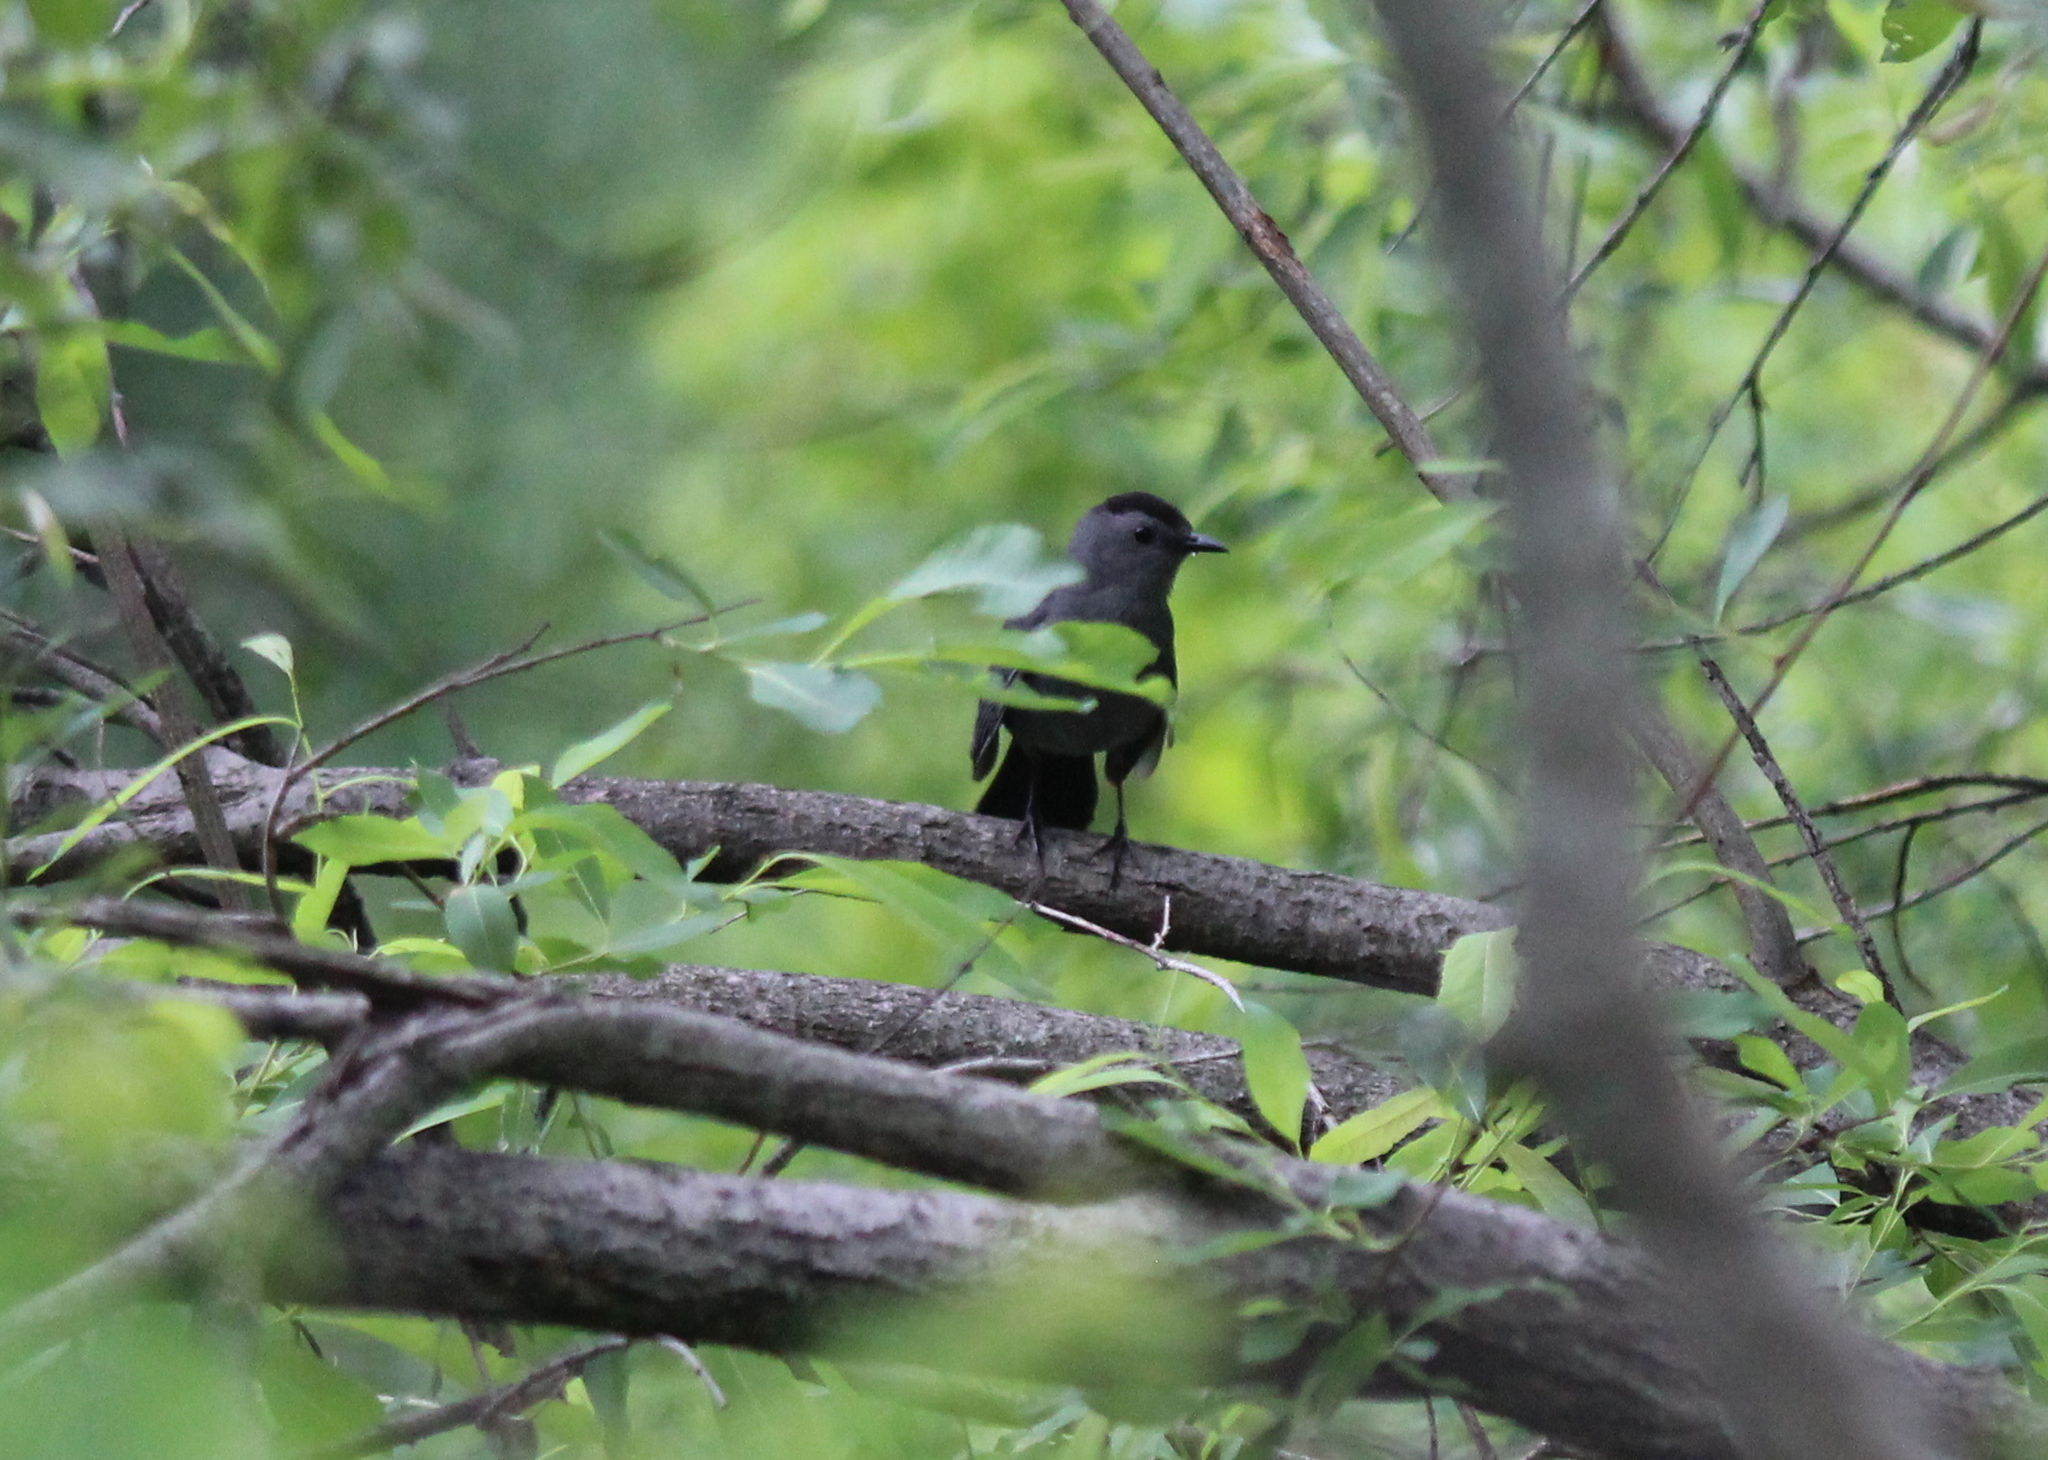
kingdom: Animalia
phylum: Chordata
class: Aves
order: Passeriformes
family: Mimidae
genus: Dumetella
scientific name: Dumetella carolinensis
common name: Gray catbird
